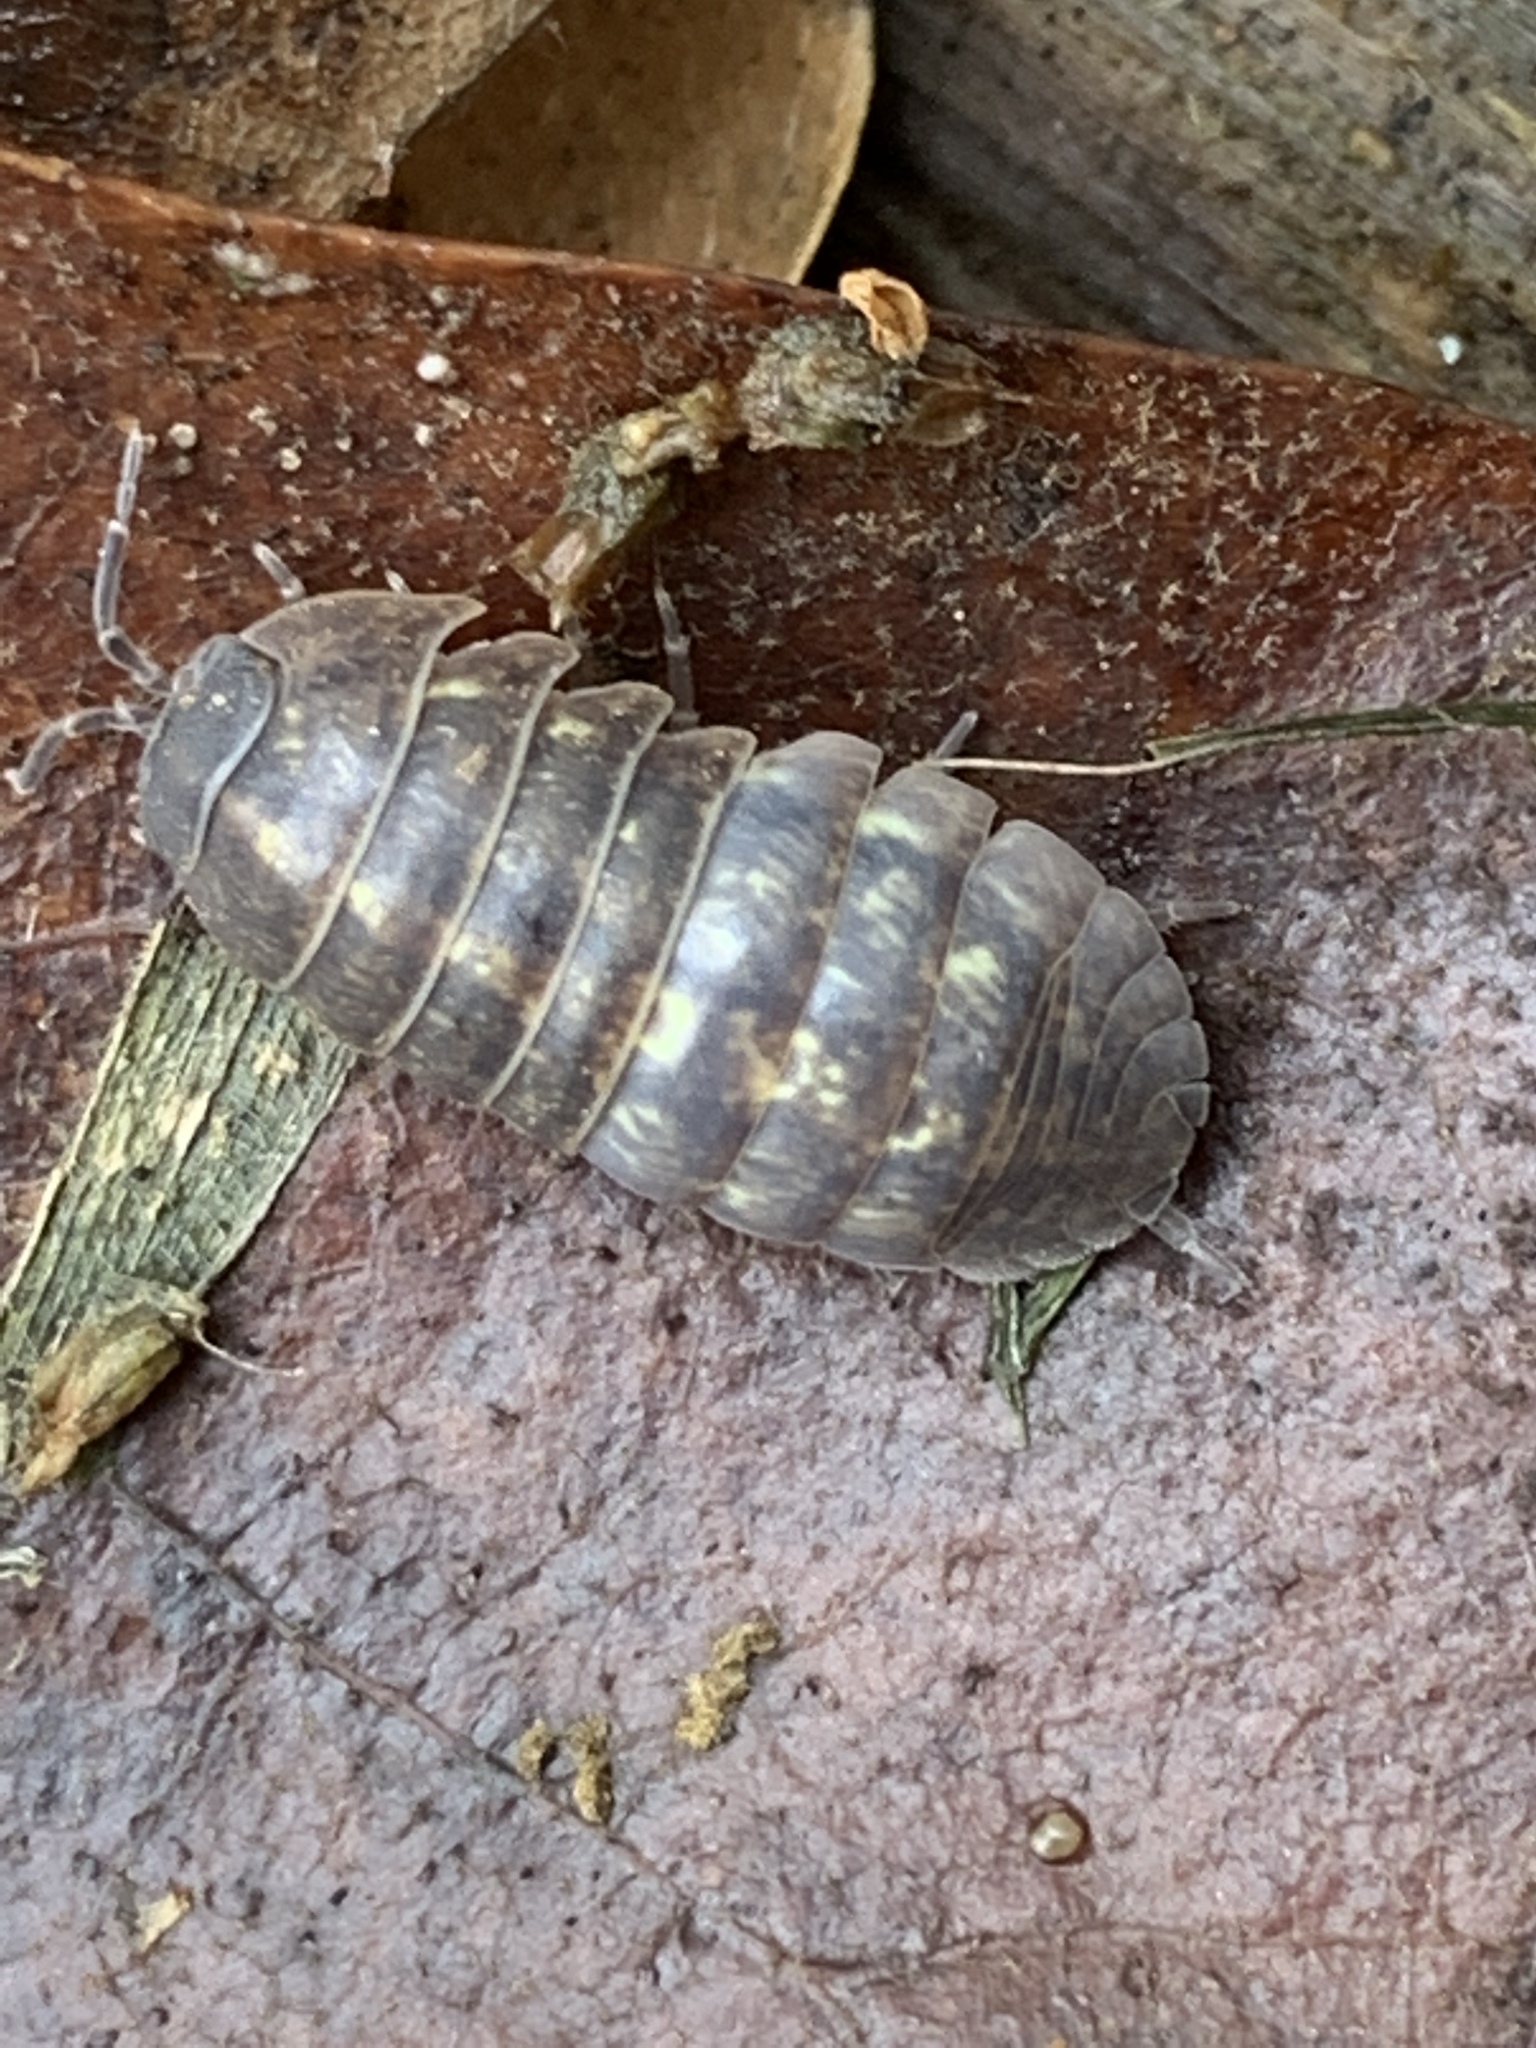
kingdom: Animalia
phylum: Arthropoda
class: Malacostraca
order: Isopoda
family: Armadillidiidae
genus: Armadillidium
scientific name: Armadillidium vulgare
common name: Common pill woodlouse
